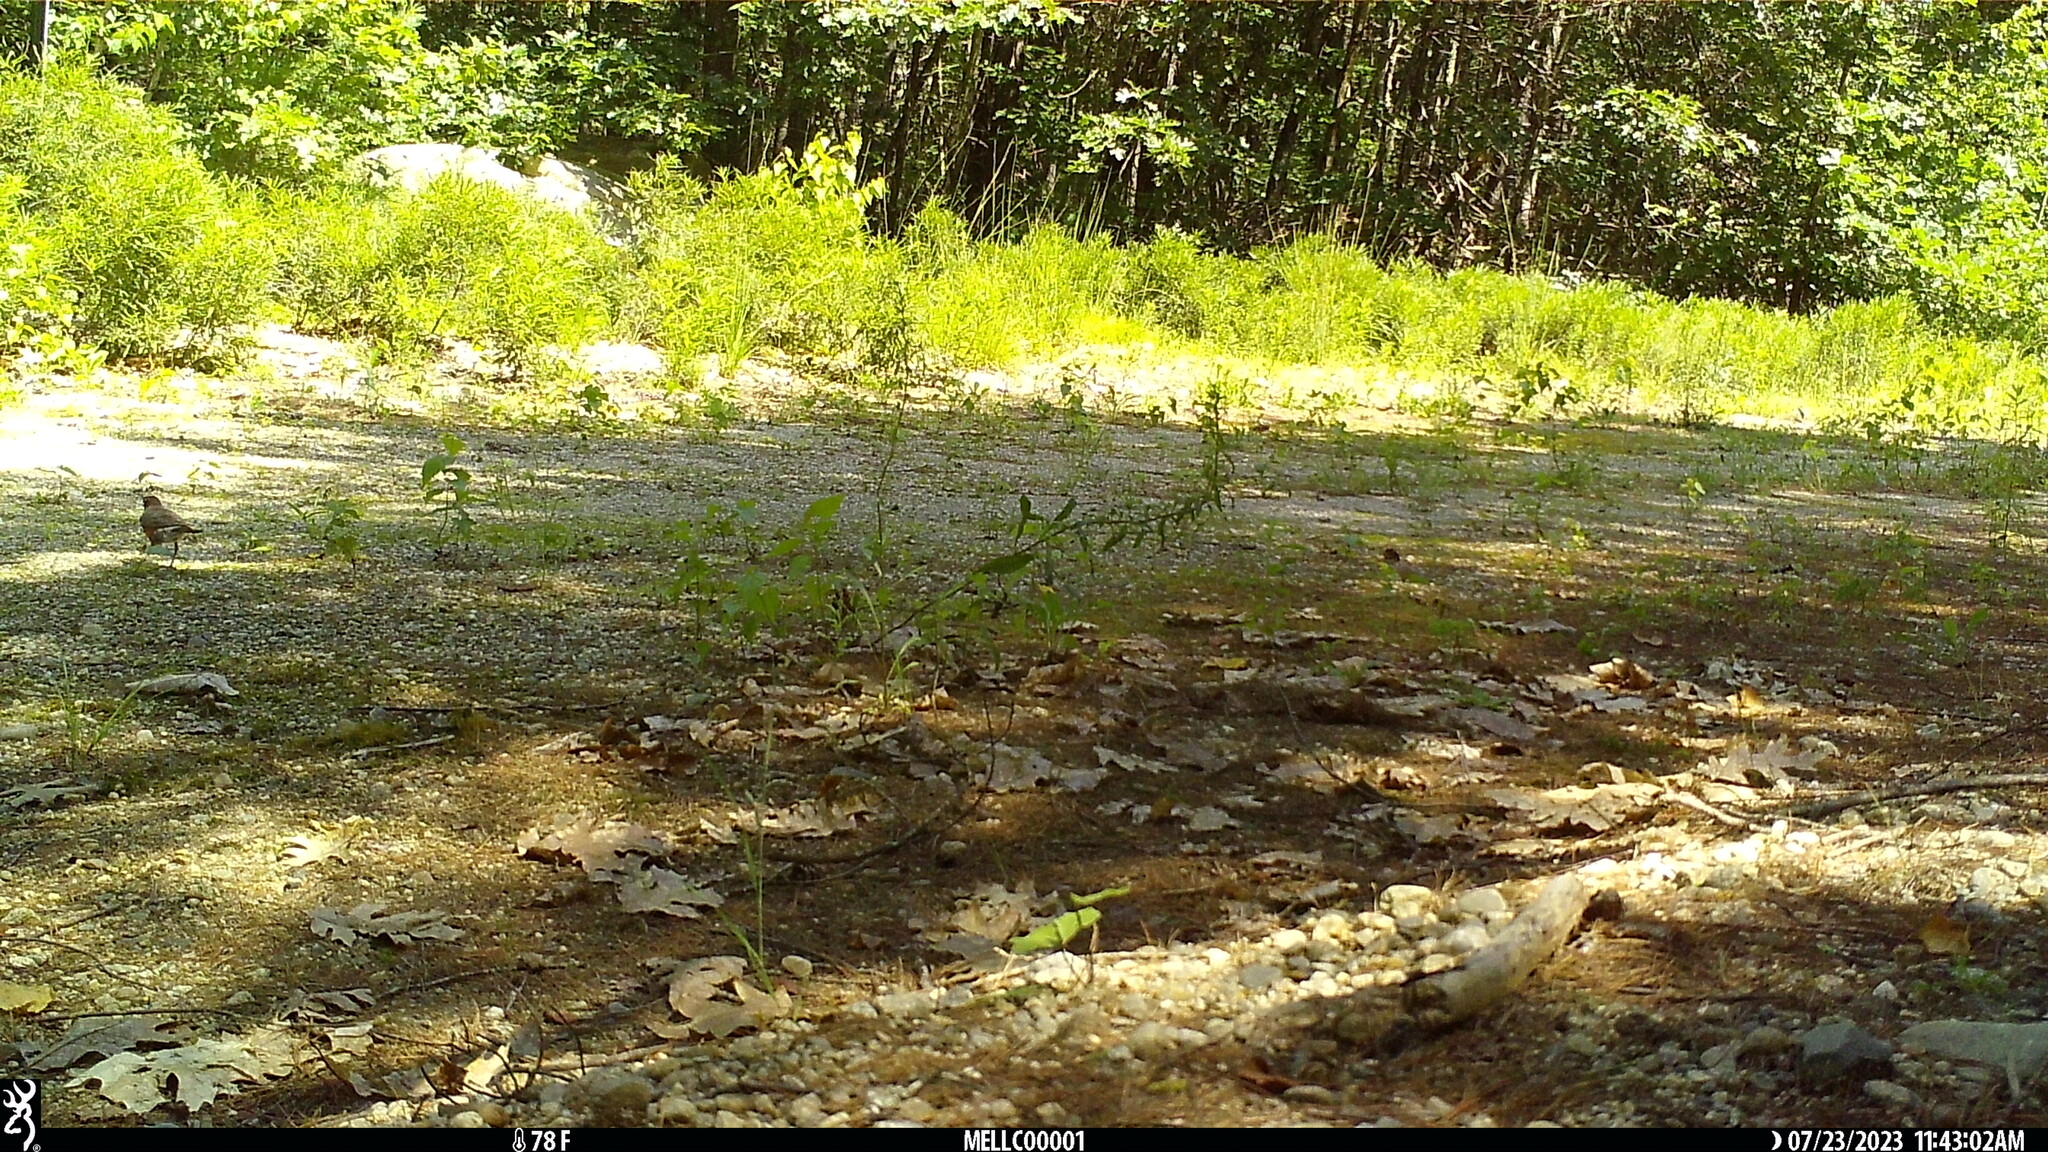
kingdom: Animalia
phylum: Chordata
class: Aves
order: Passeriformes
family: Turdidae
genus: Turdus
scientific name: Turdus migratorius
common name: American robin
